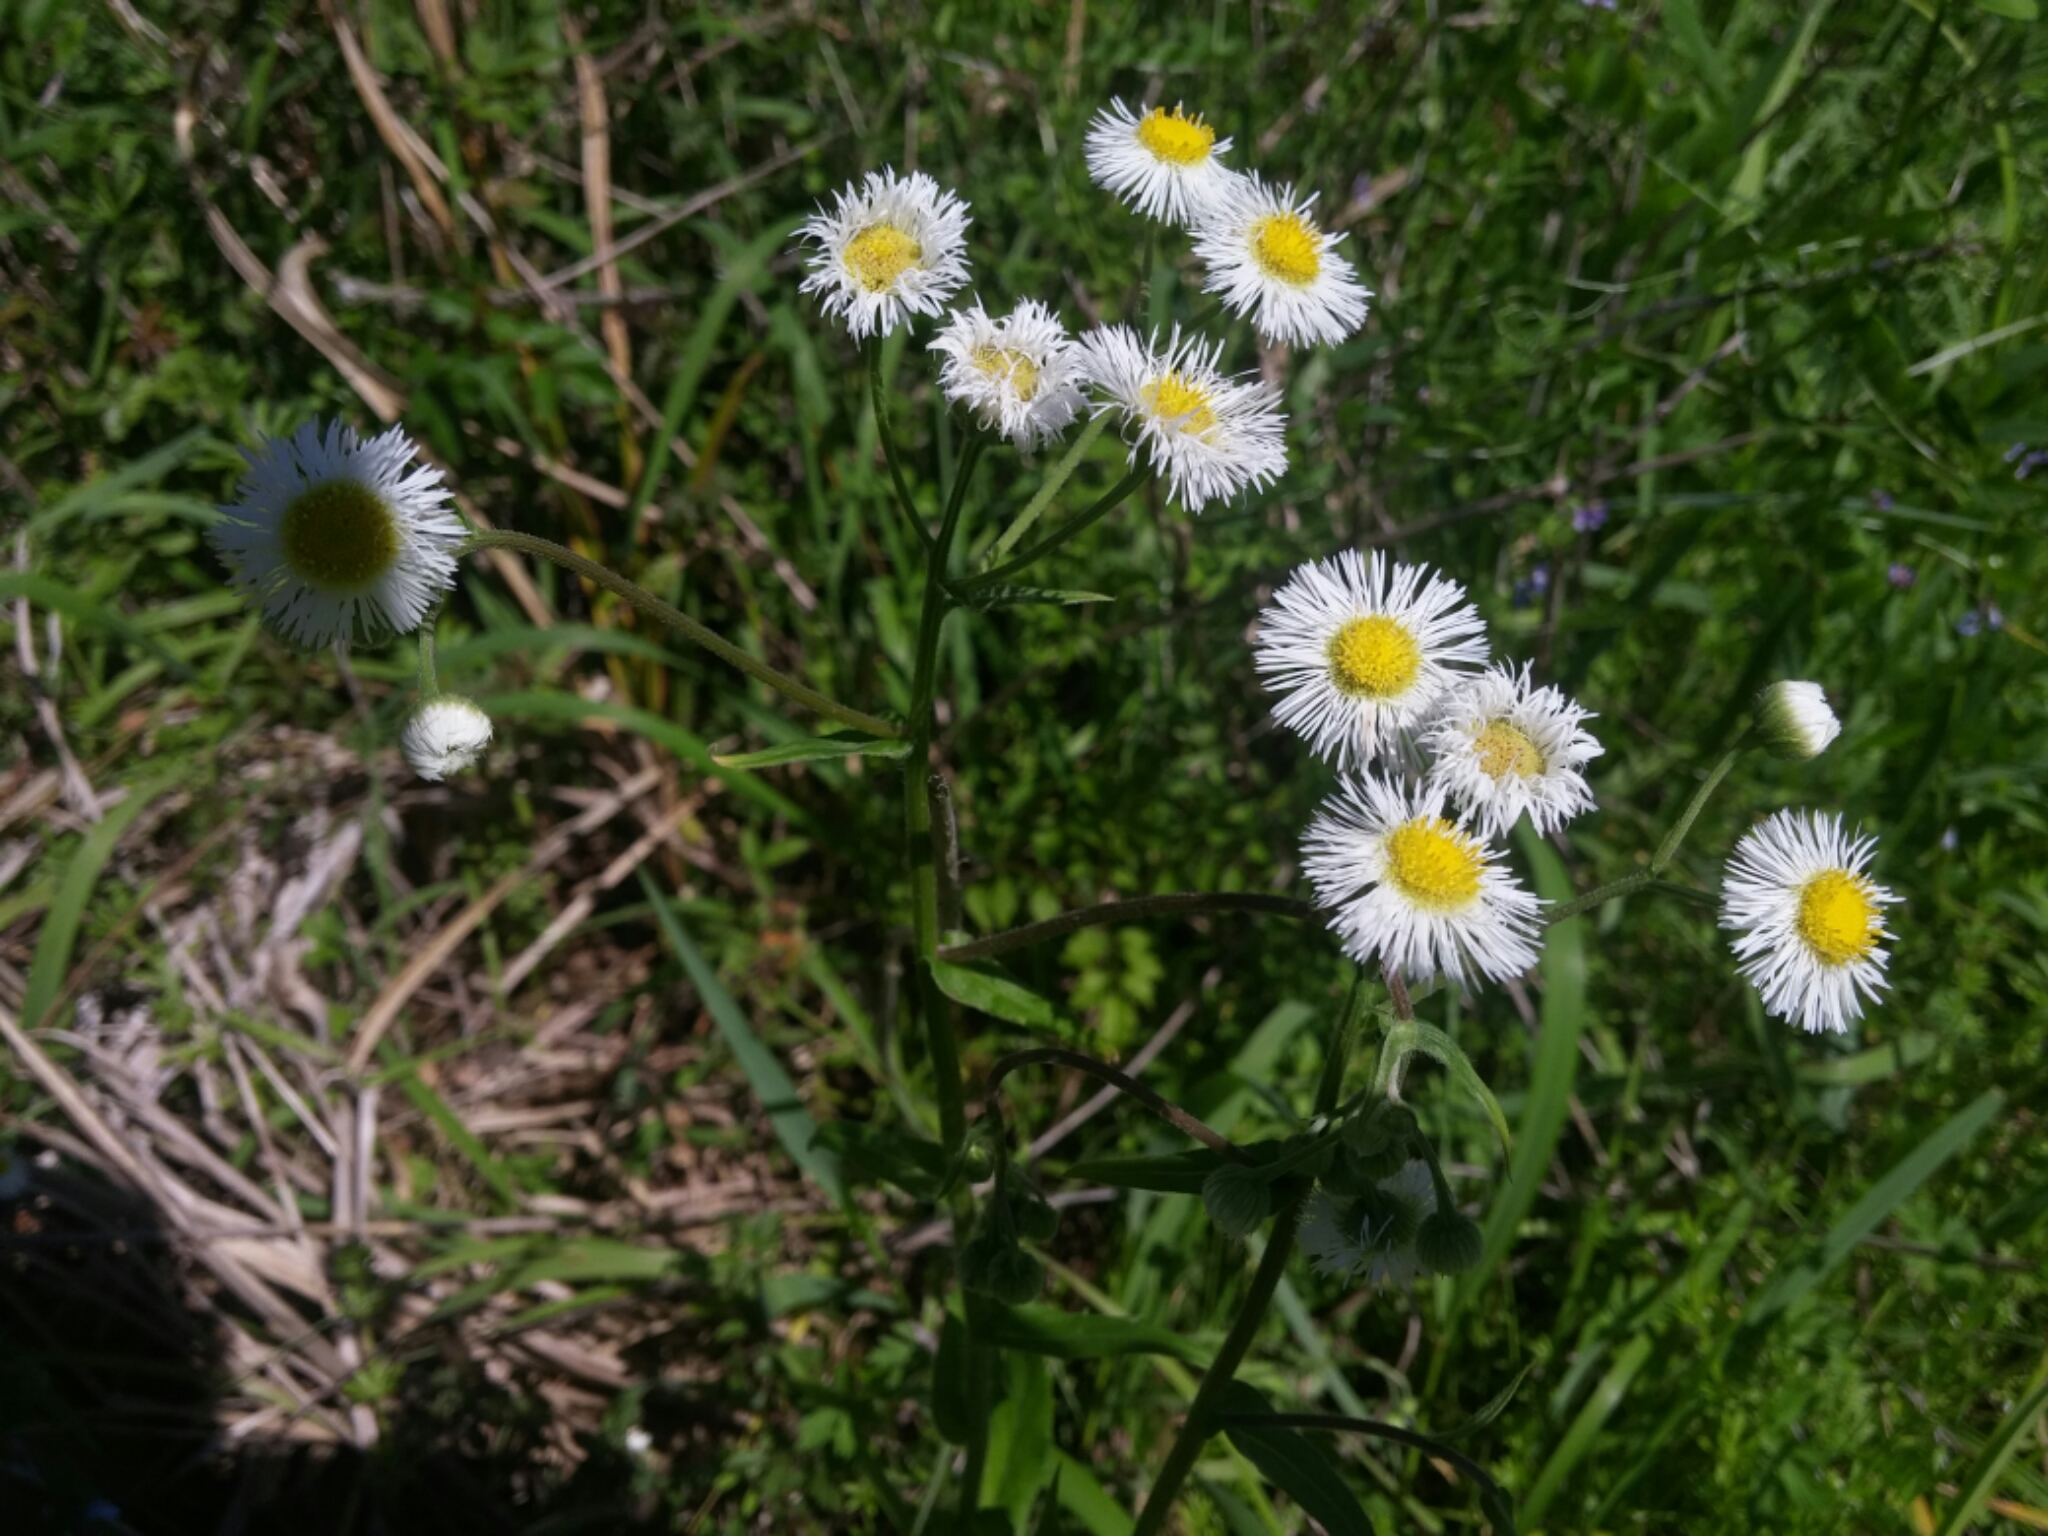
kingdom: Plantae
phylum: Tracheophyta
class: Magnoliopsida
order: Asterales
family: Asteraceae
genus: Erigeron
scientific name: Erigeron strigosus
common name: Common eastern fleabane
